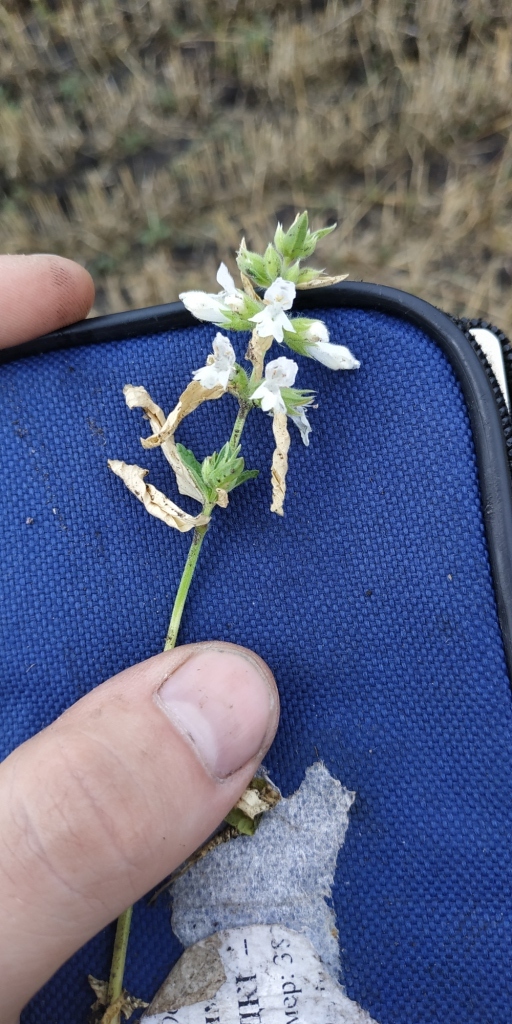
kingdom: Plantae
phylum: Tracheophyta
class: Magnoliopsida
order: Lamiales
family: Lamiaceae
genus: Stachys
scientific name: Stachys annua
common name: Annual yellow-woundwort
